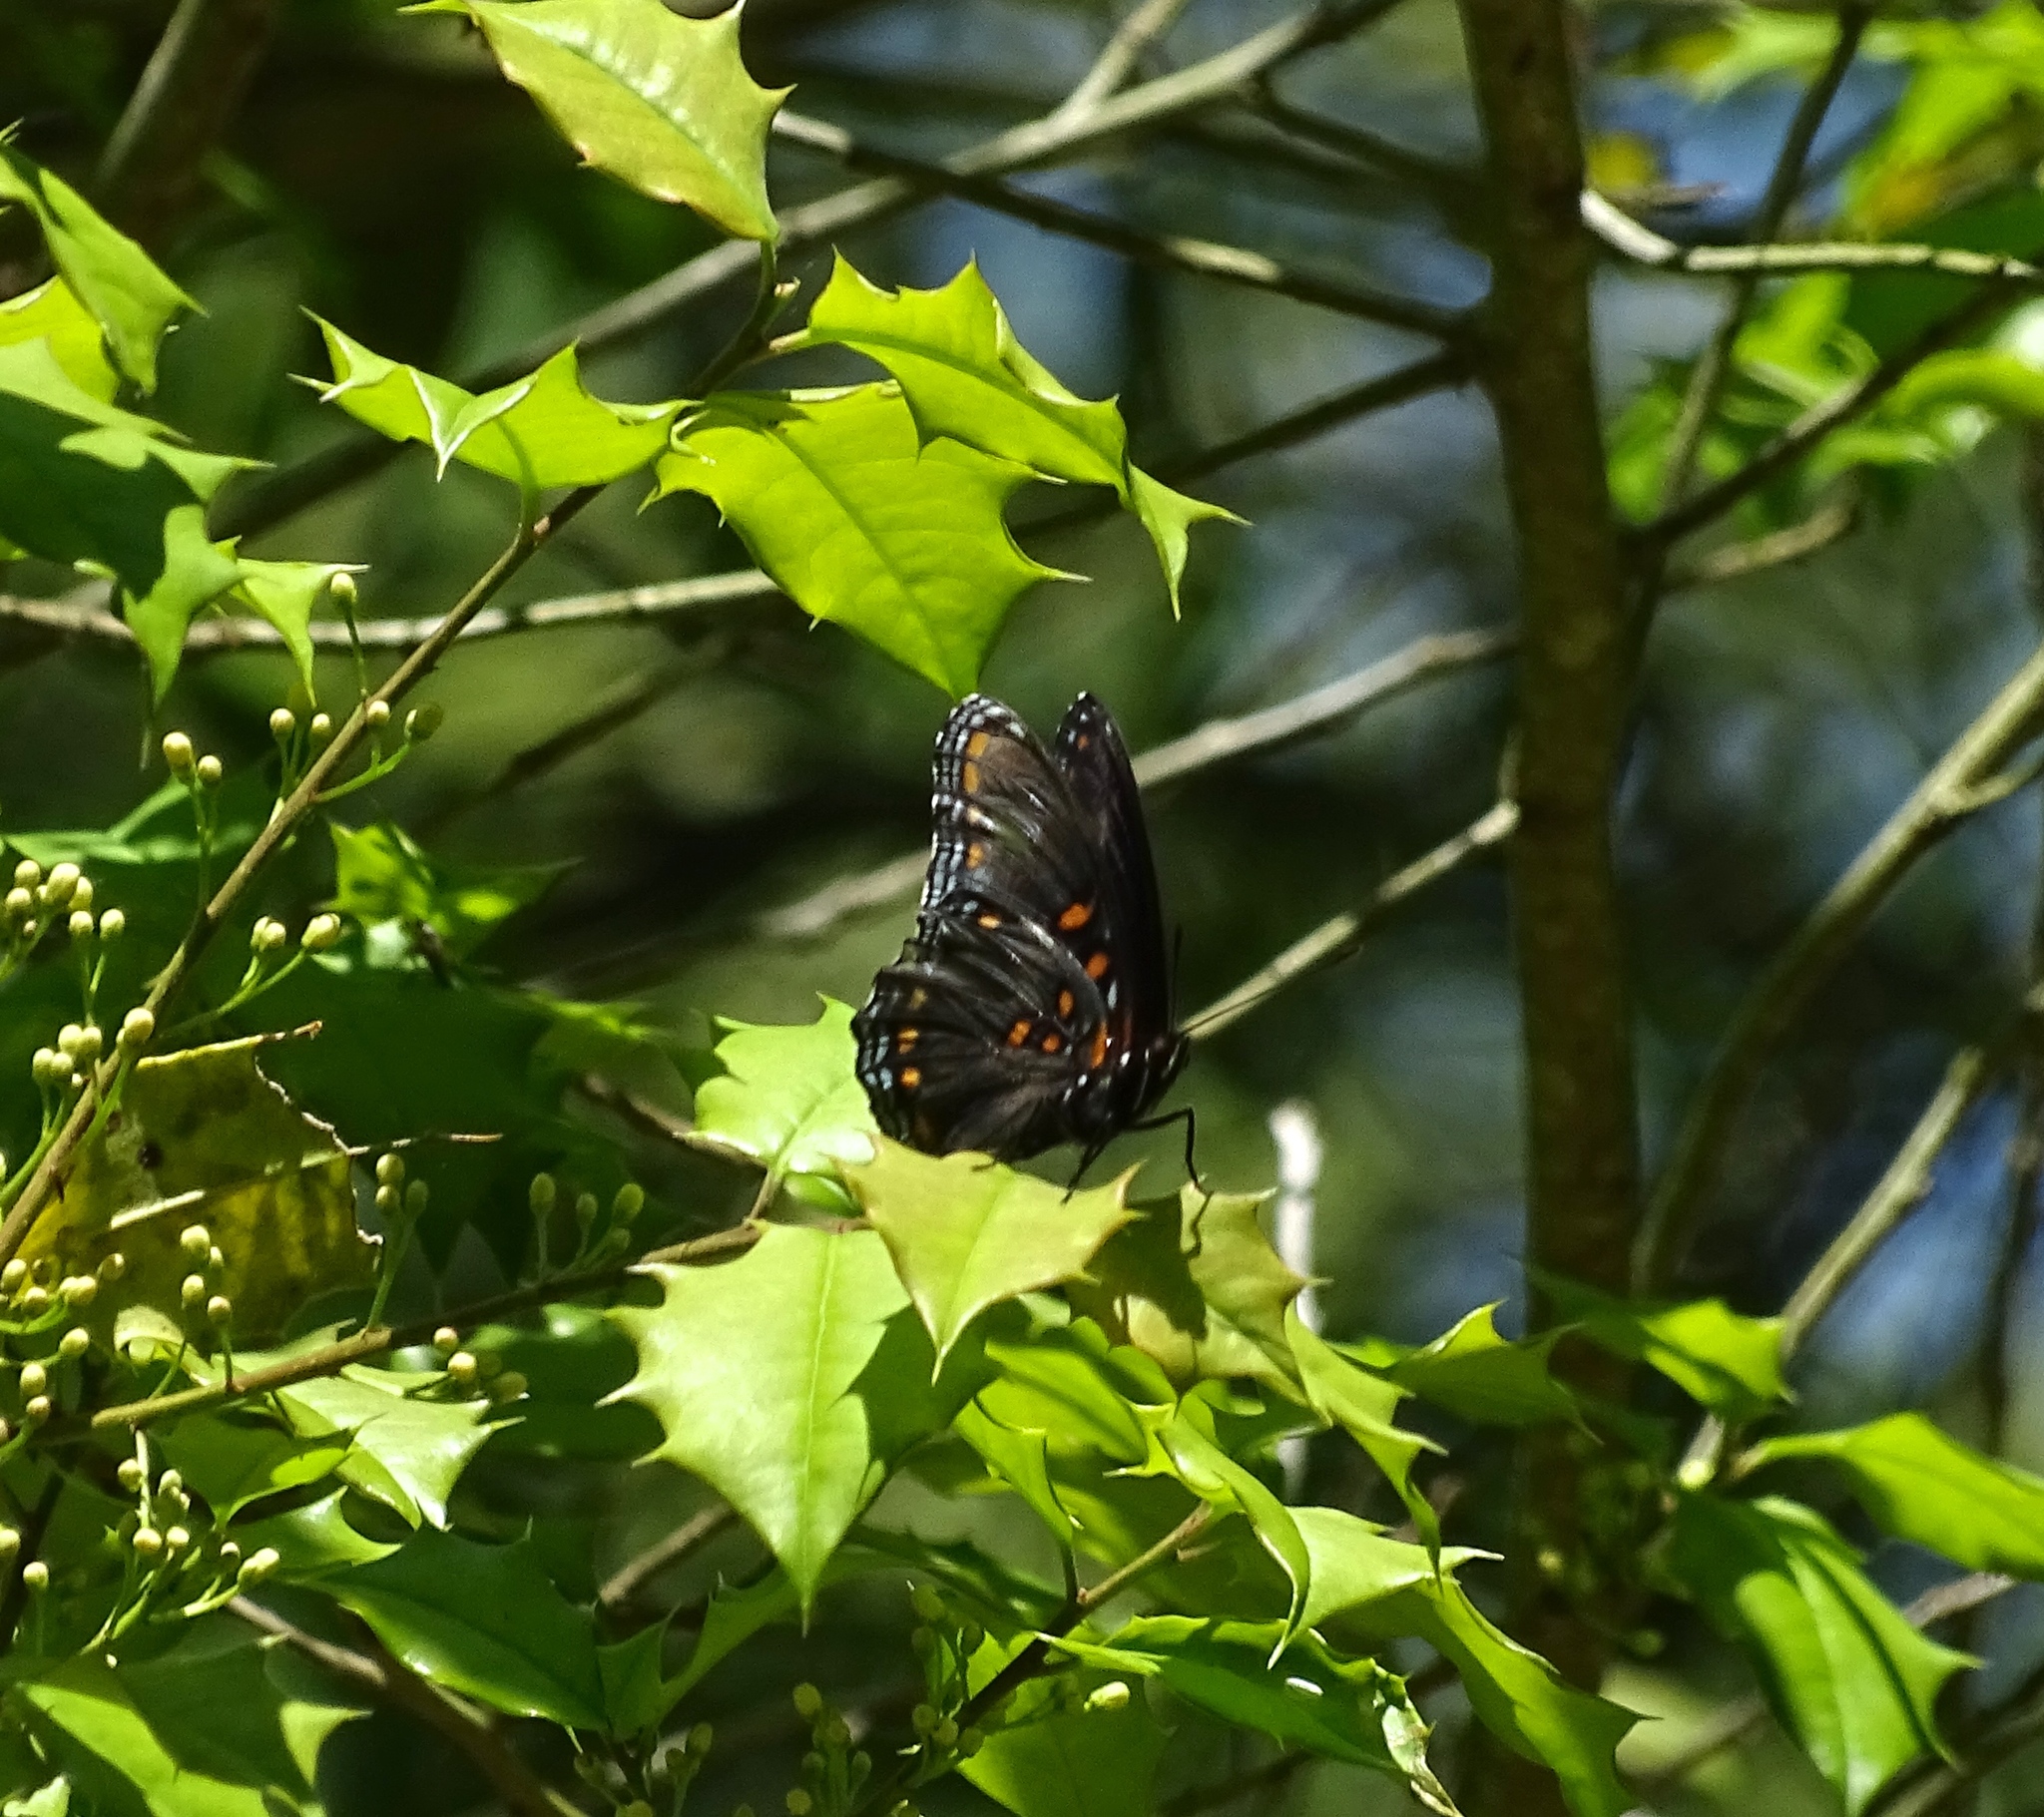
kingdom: Animalia
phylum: Arthropoda
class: Insecta
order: Lepidoptera
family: Nymphalidae
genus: Limenitis
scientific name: Limenitis astyanax
